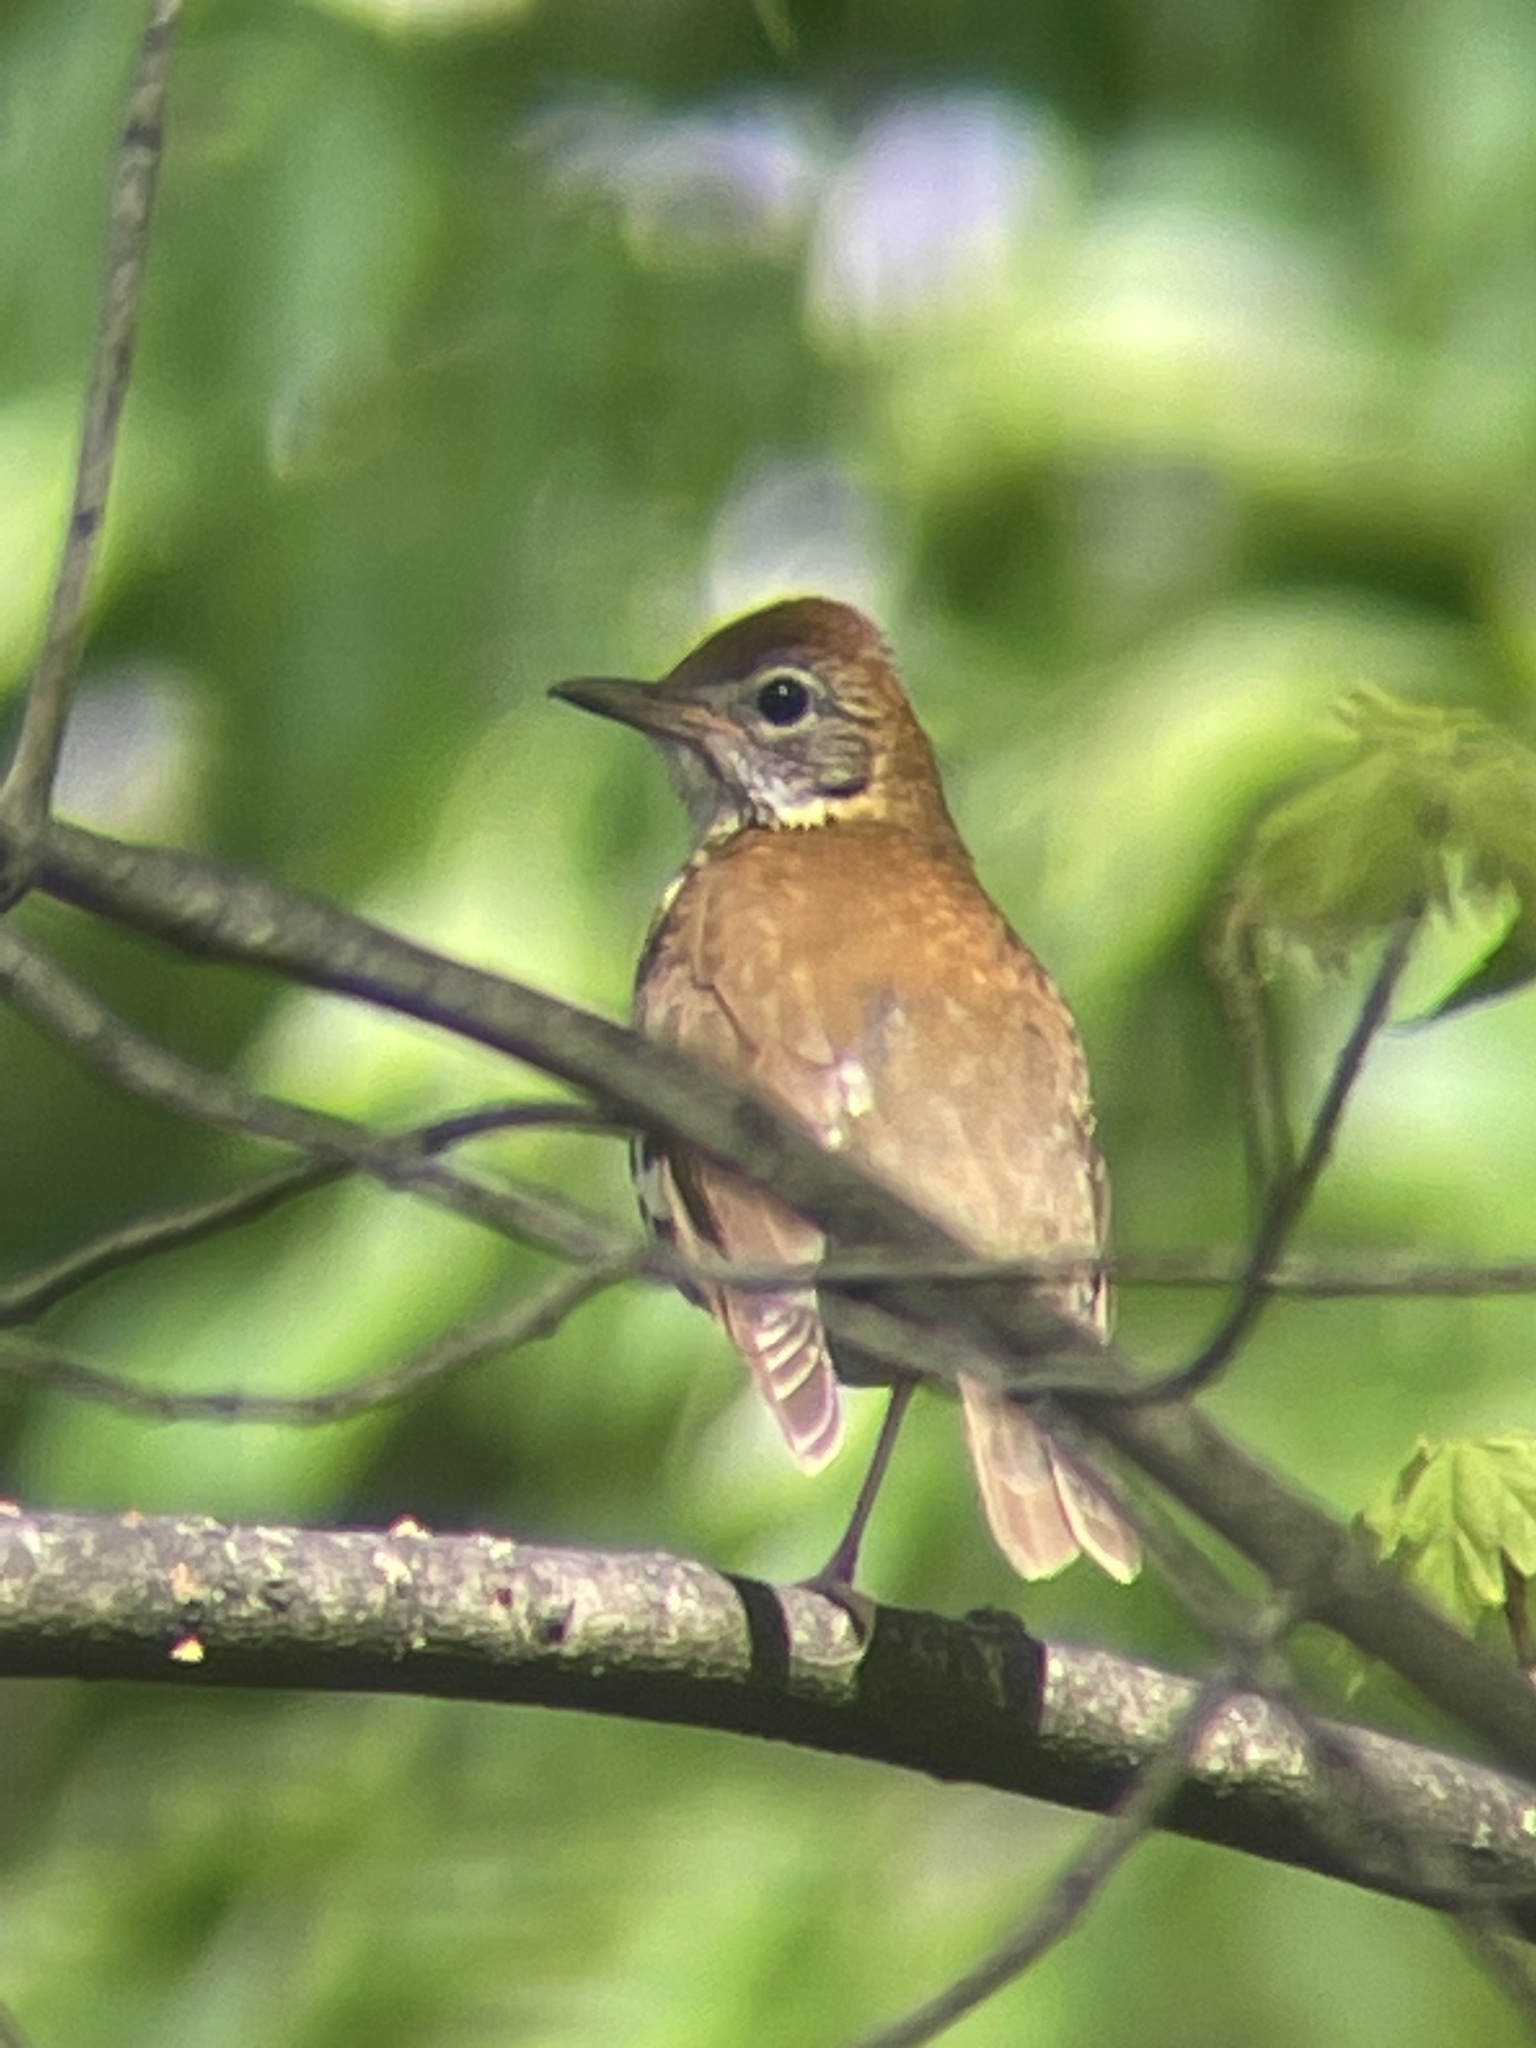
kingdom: Animalia
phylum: Chordata
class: Aves
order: Passeriformes
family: Turdidae
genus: Hylocichla
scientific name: Hylocichla mustelina
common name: Wood thrush
